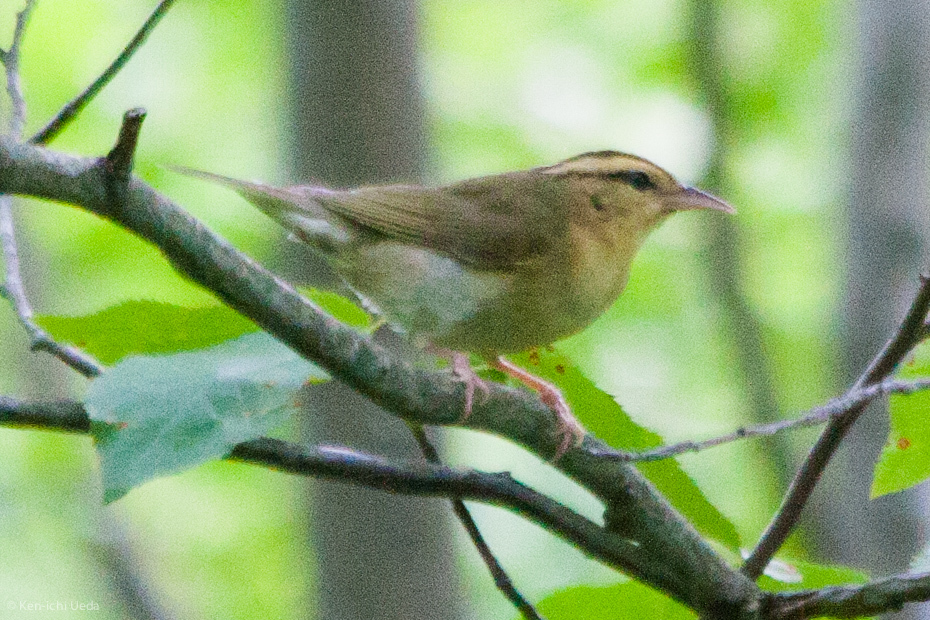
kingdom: Animalia
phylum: Chordata
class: Aves
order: Passeriformes
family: Parulidae
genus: Helmitheros
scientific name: Helmitheros vermivorum
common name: Worm-eating warbler
